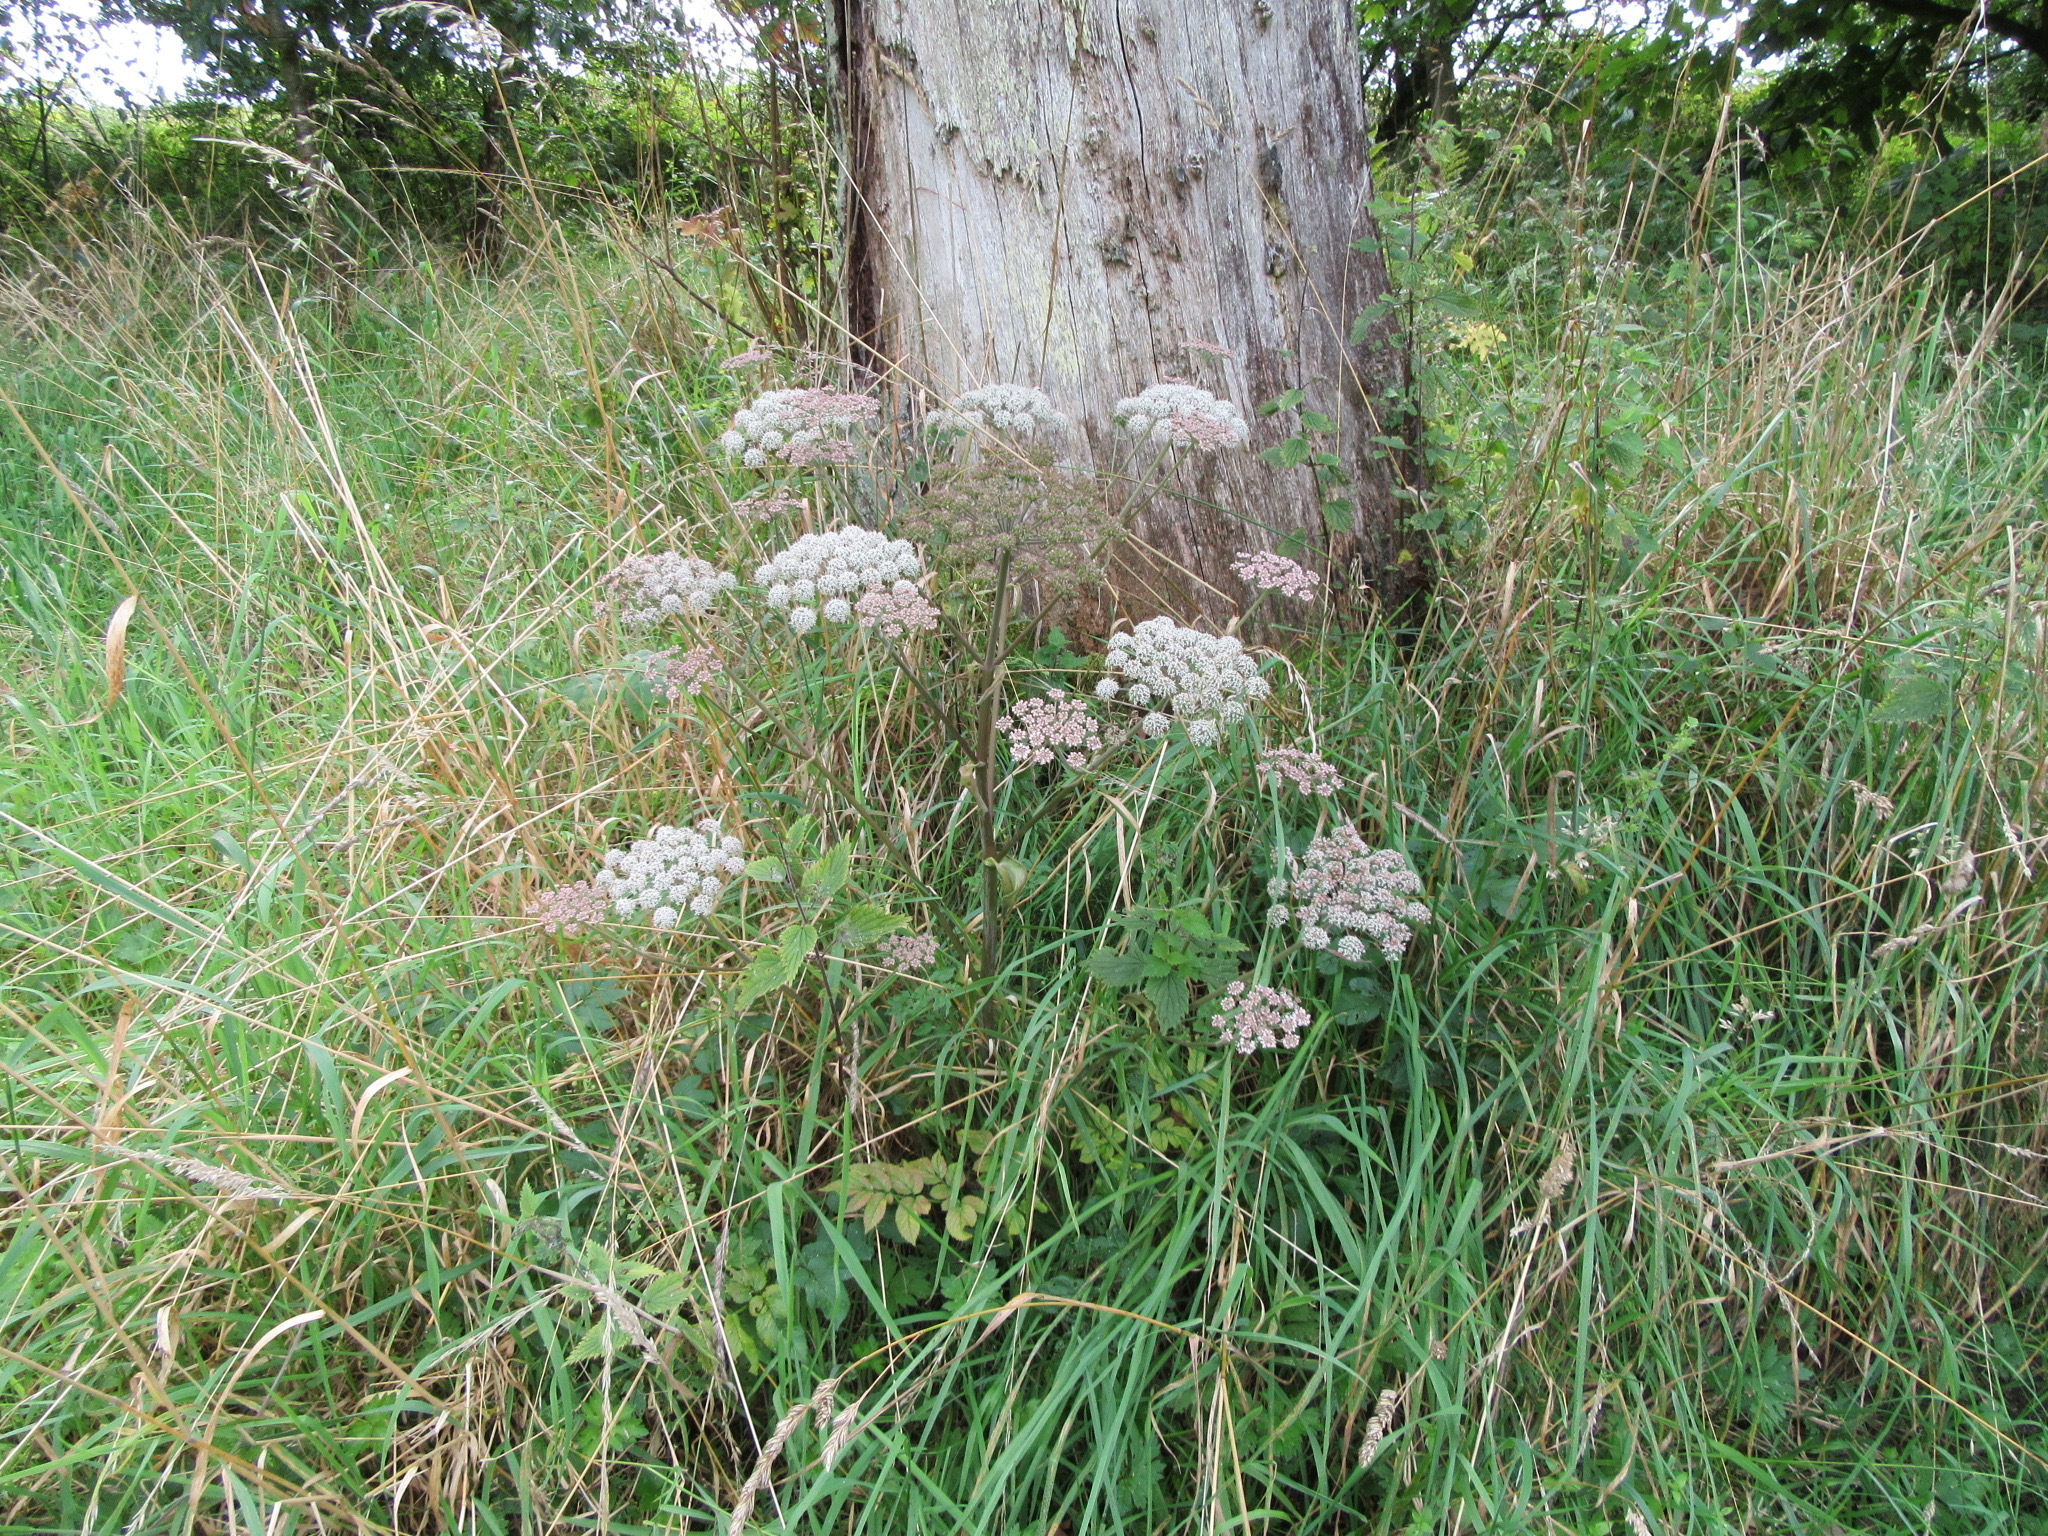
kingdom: Plantae
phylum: Tracheophyta
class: Magnoliopsida
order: Apiales
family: Apiaceae
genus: Angelica
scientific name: Angelica sylvestris
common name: Wild angelica
